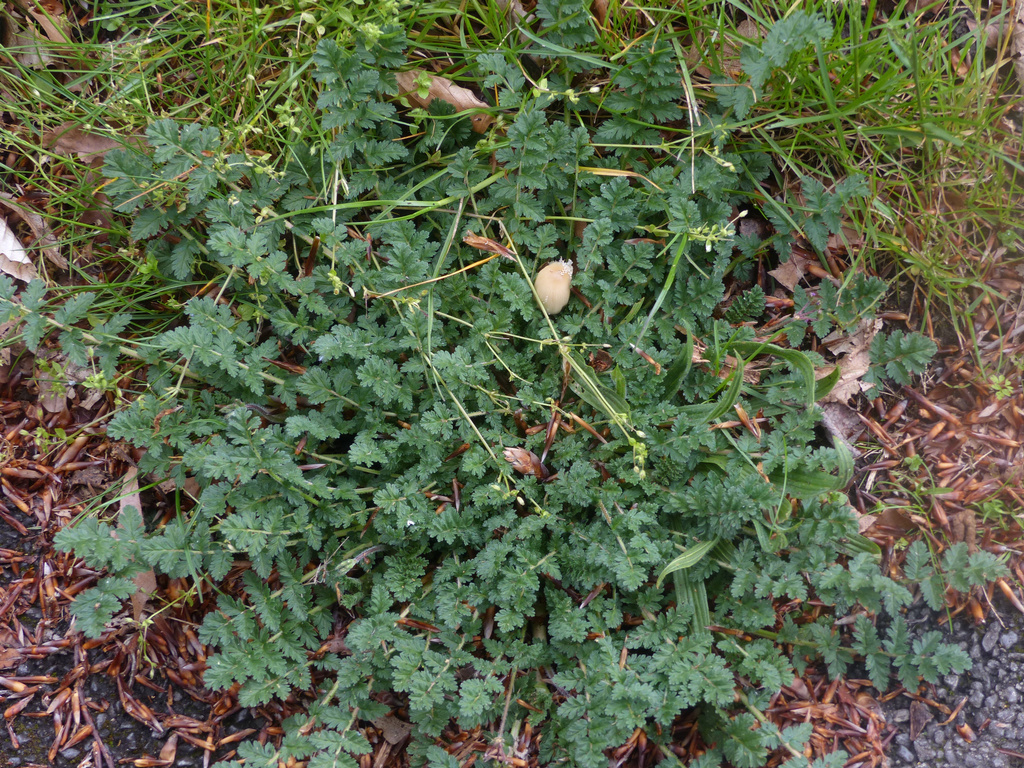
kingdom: Plantae
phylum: Tracheophyta
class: Magnoliopsida
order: Geraniales
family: Geraniaceae
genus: Erodium
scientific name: Erodium cicutarium
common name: Common stork's-bill
